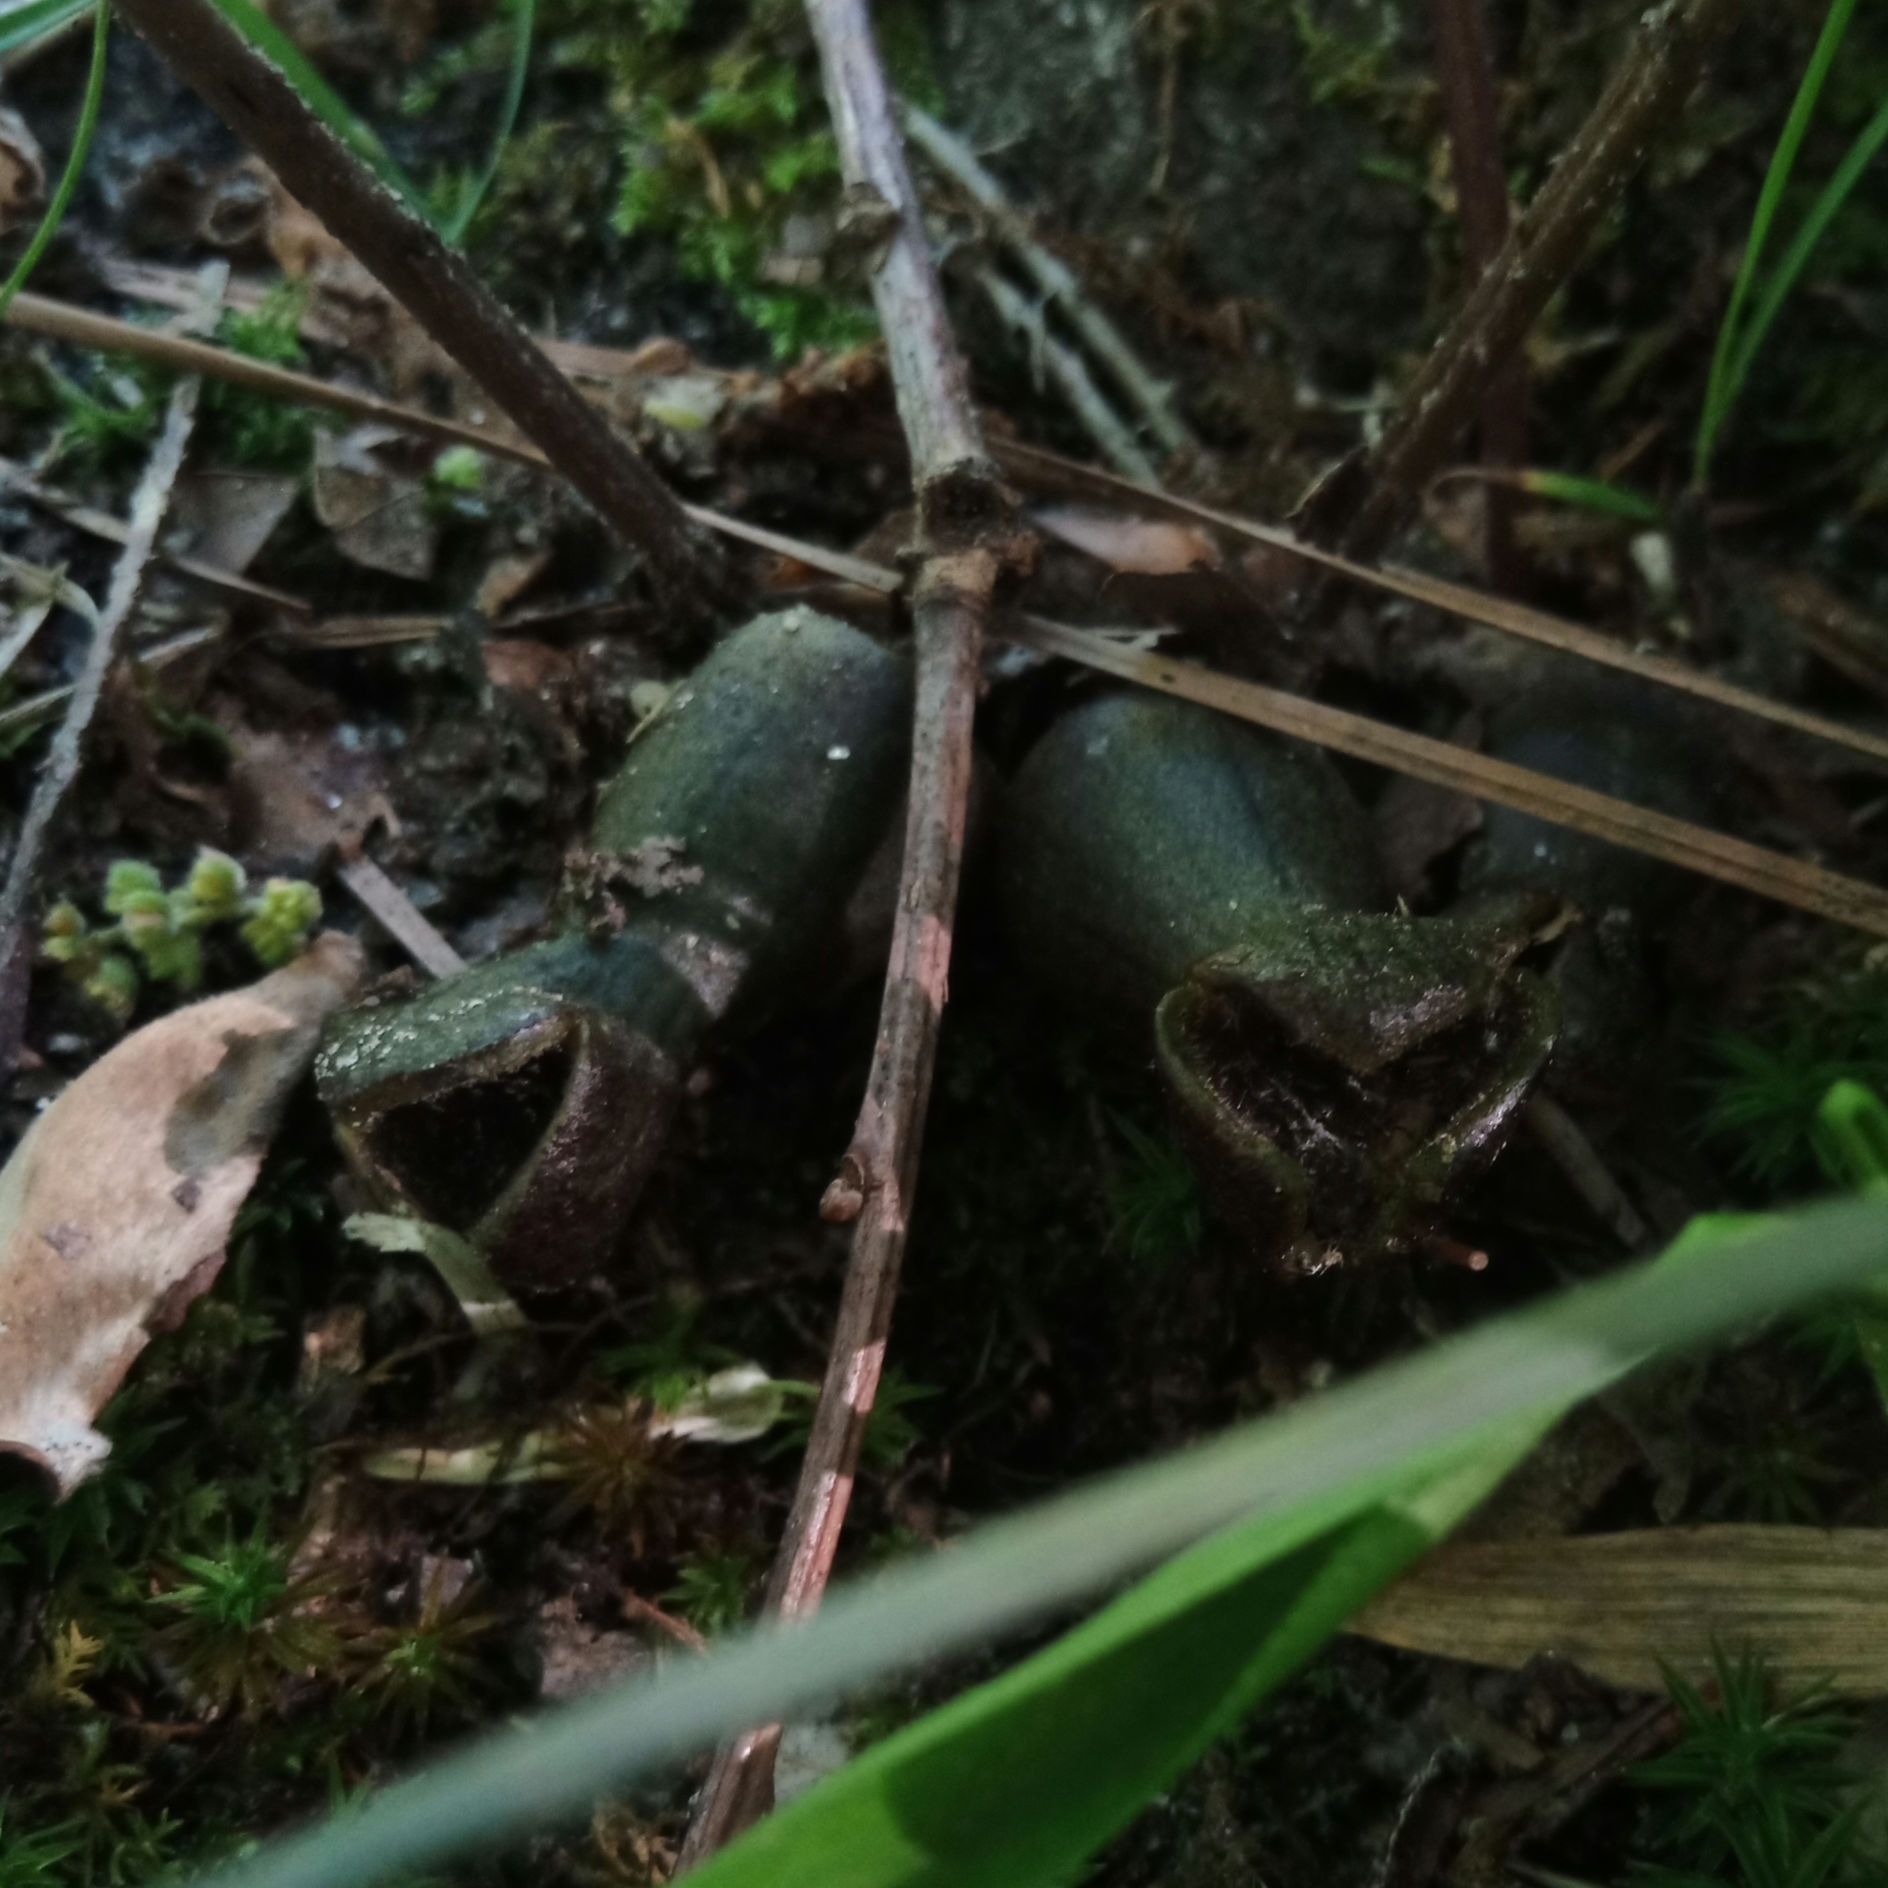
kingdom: Plantae
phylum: Tracheophyta
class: Magnoliopsida
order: Piperales
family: Aristolochiaceae
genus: Hexastylis
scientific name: Hexastylis arifolia
